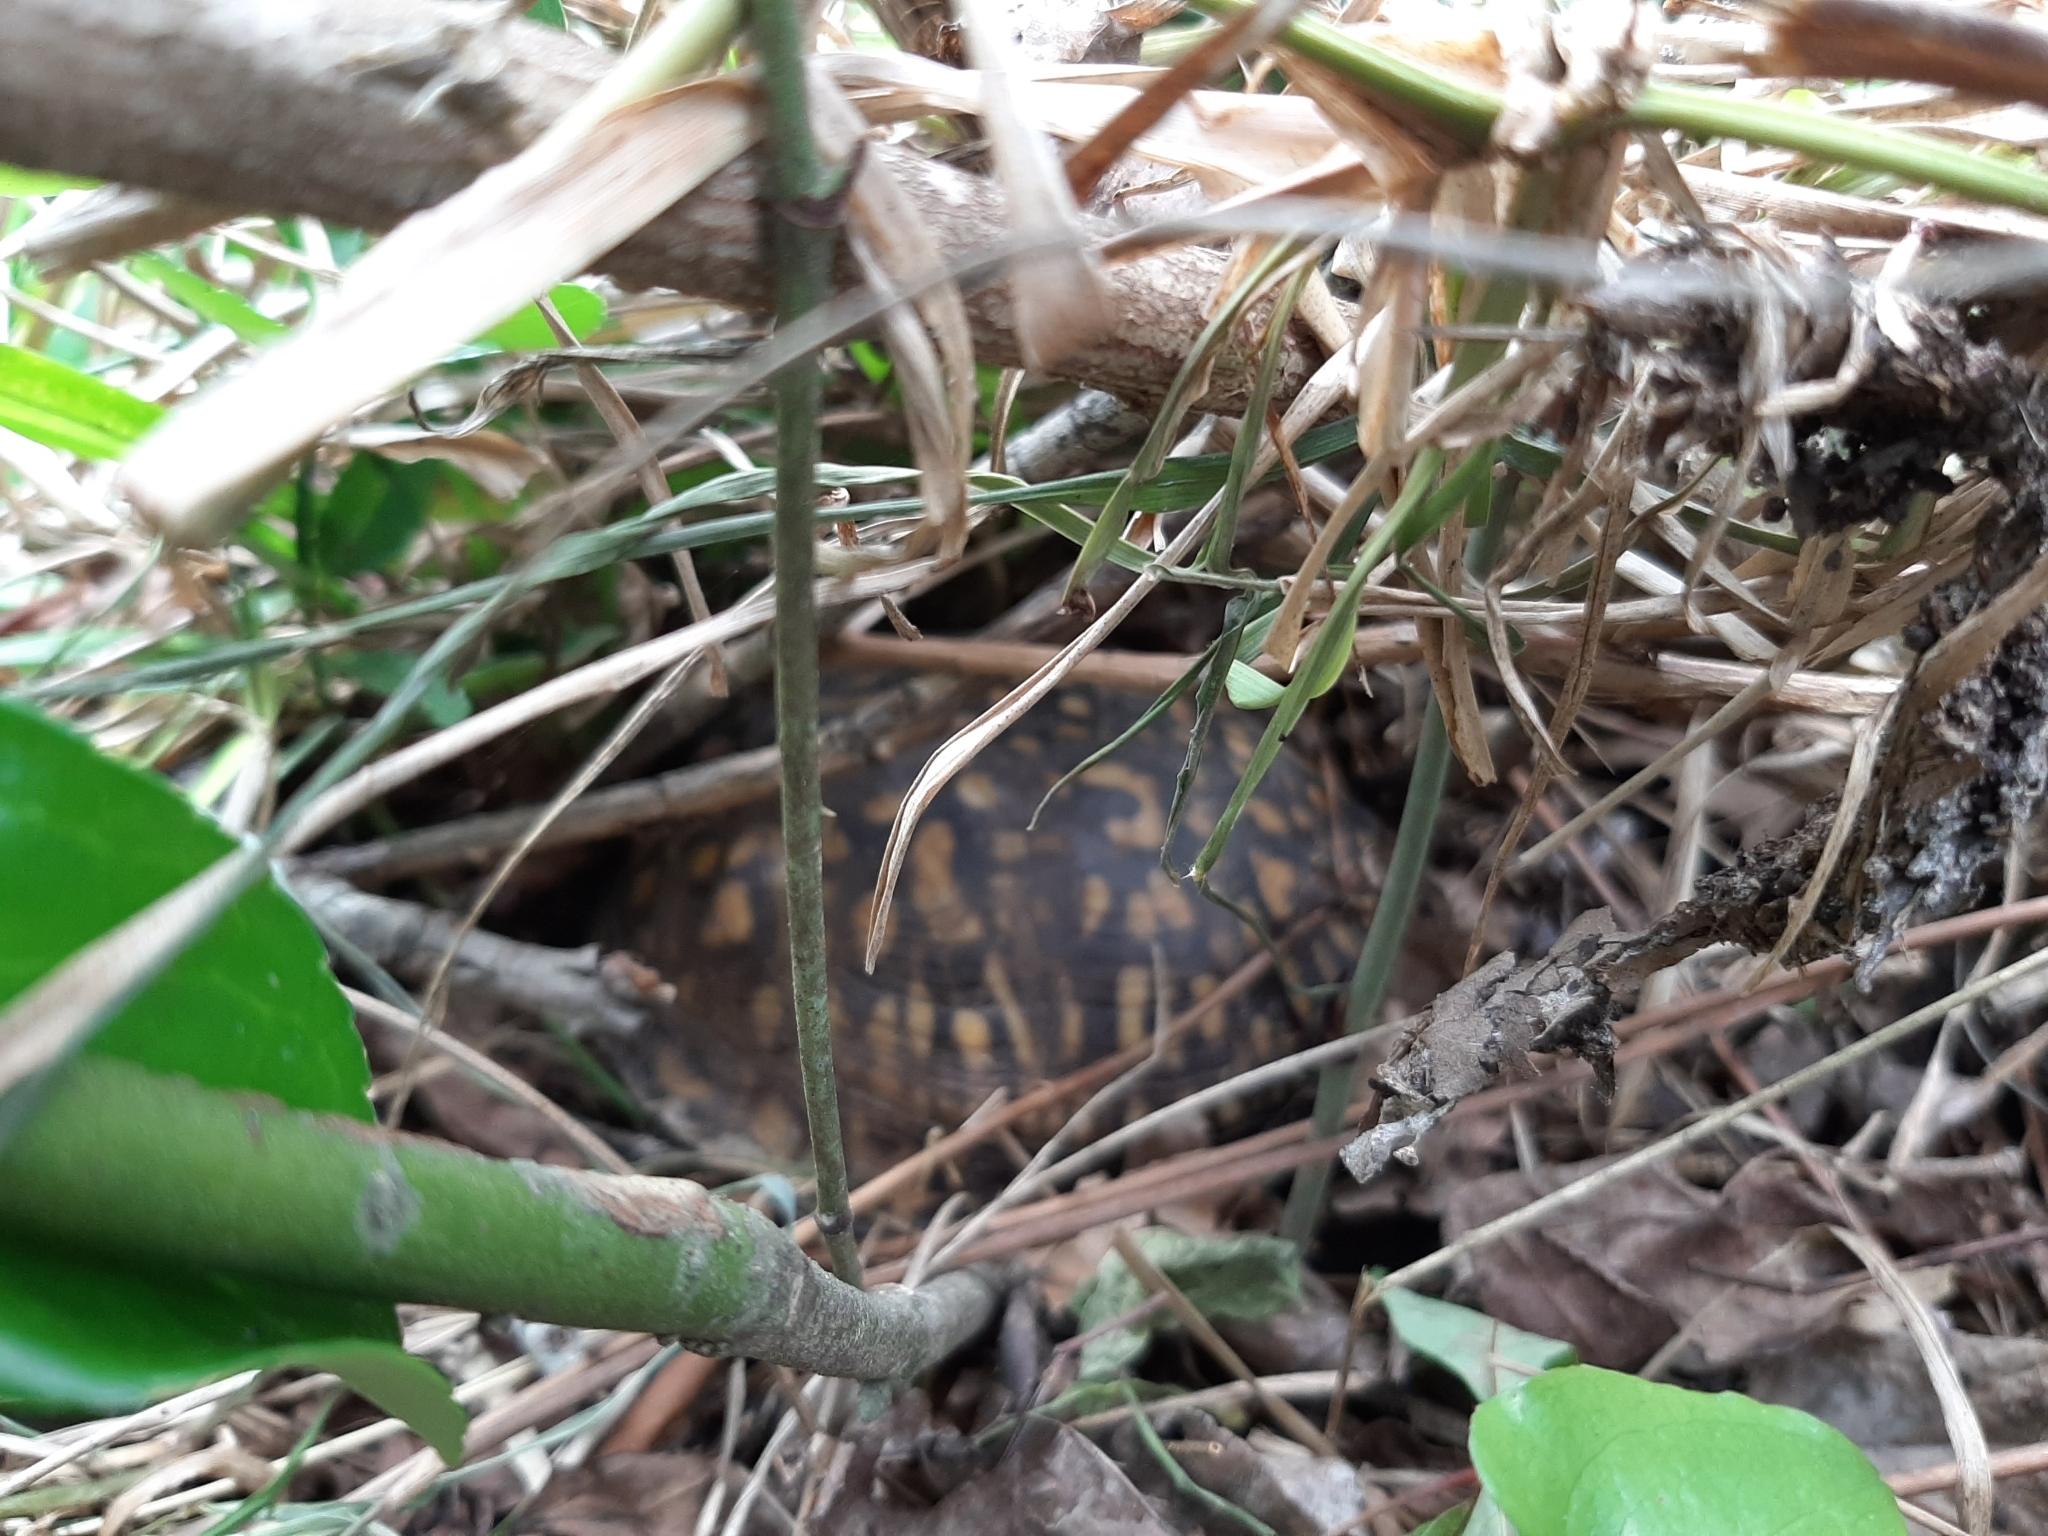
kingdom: Animalia
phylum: Chordata
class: Testudines
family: Emydidae
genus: Terrapene
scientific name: Terrapene carolina
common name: Common box turtle
